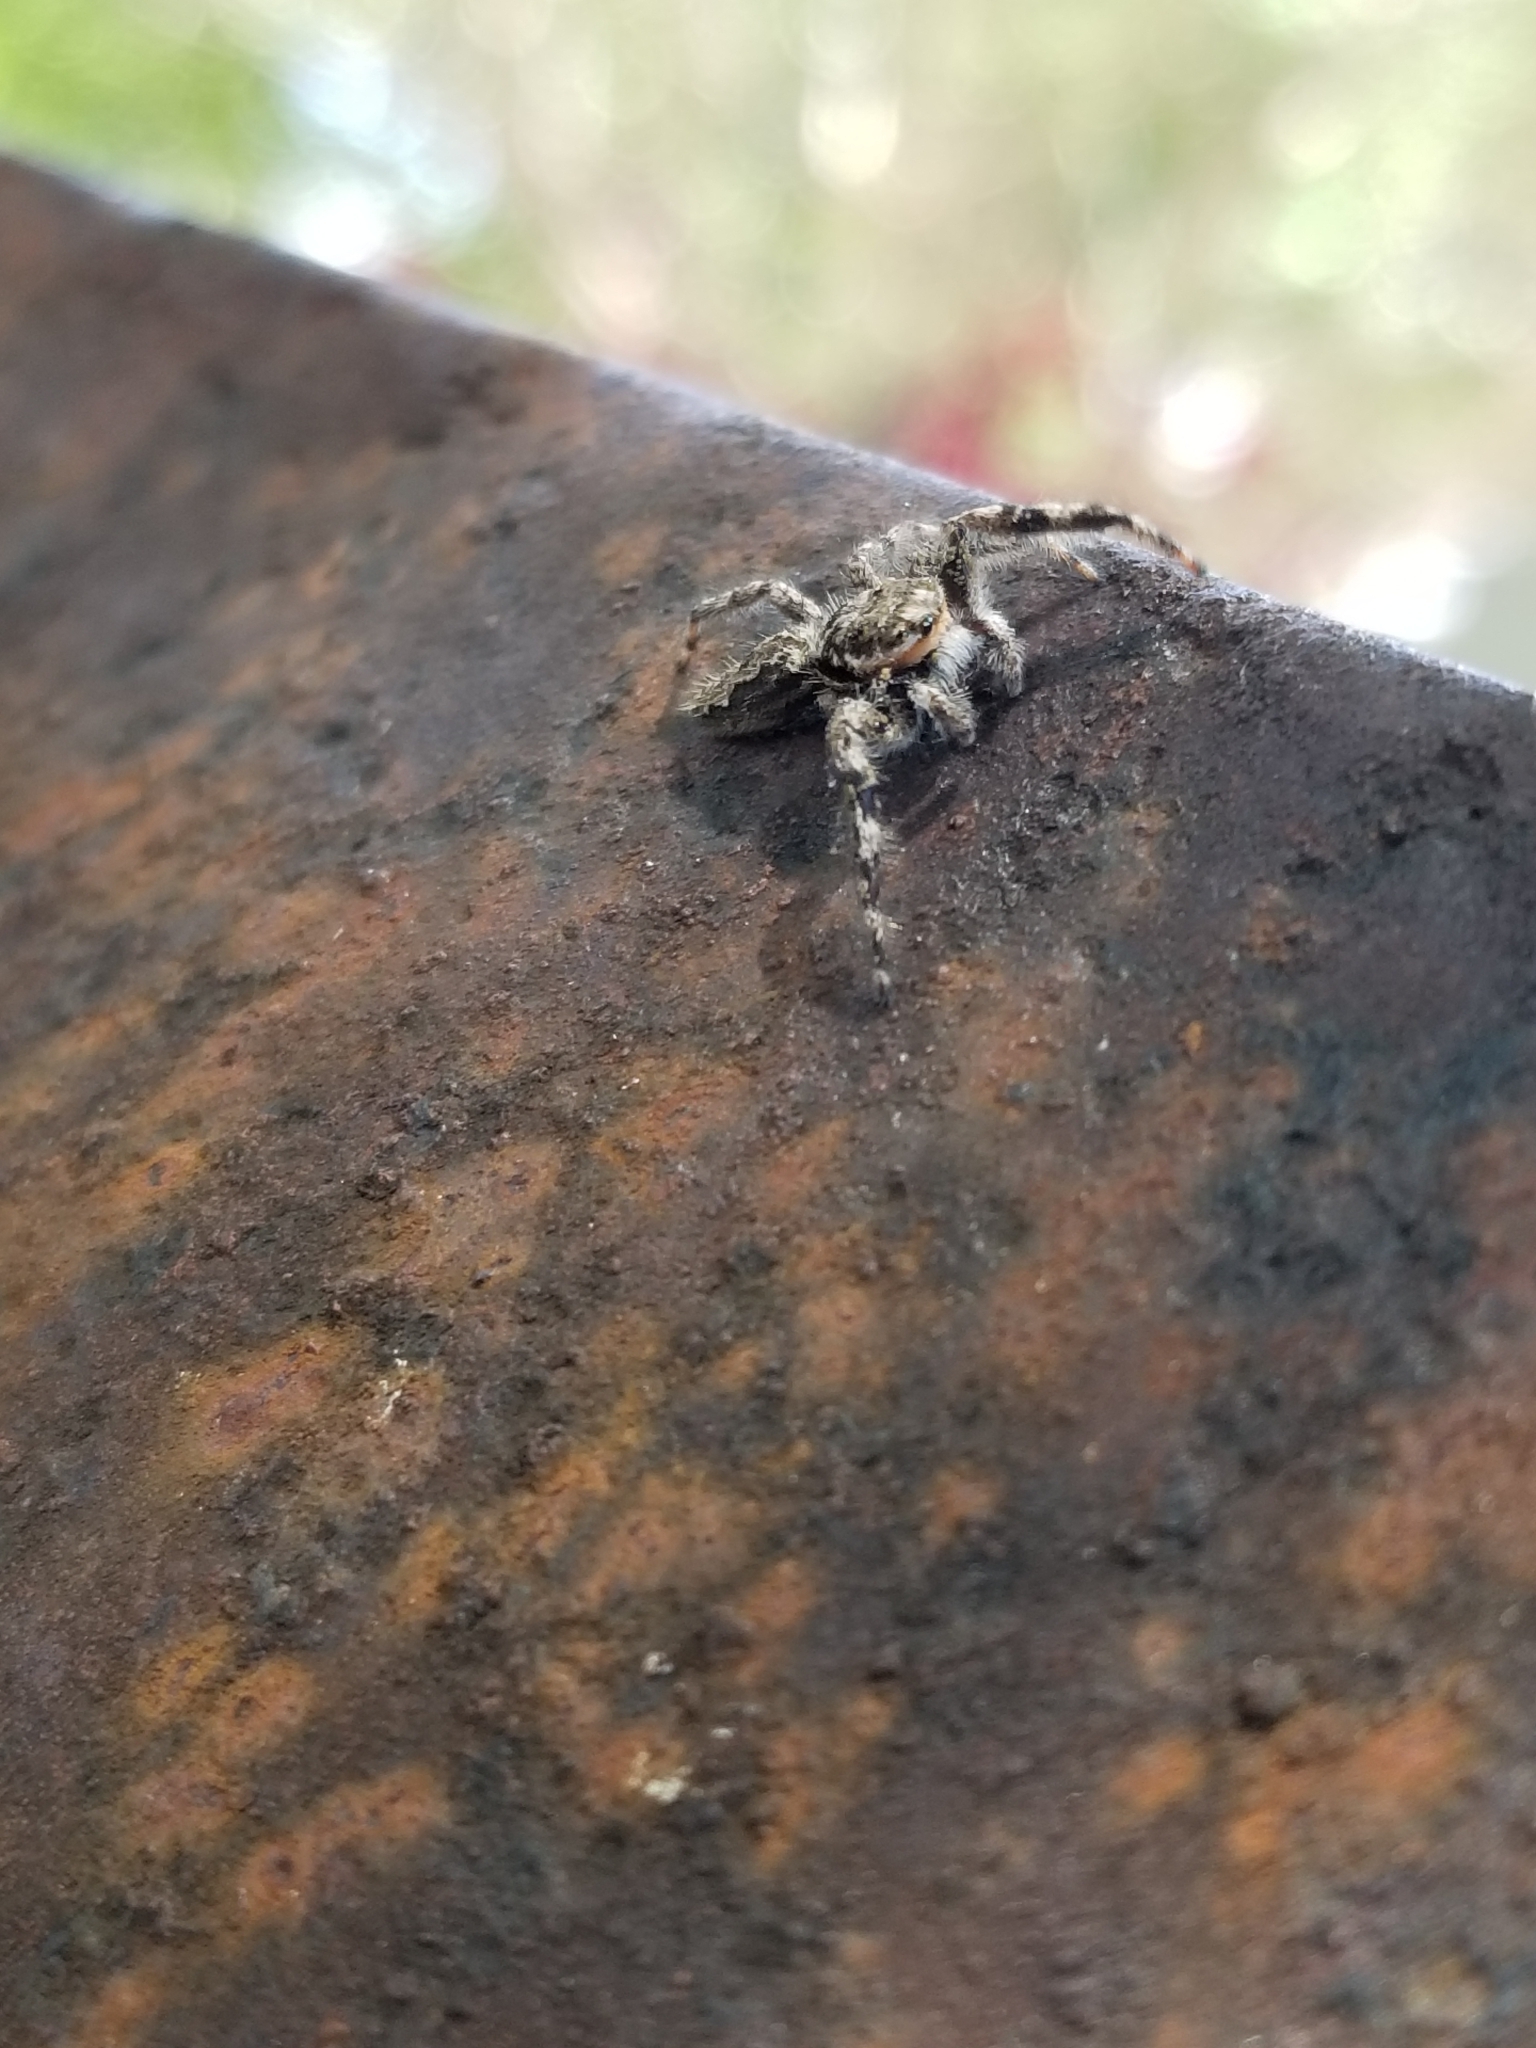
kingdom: Animalia
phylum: Arthropoda
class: Arachnida
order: Araneae
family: Salticidae
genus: Platycryptus
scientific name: Platycryptus undatus
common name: Tan jumping spider
